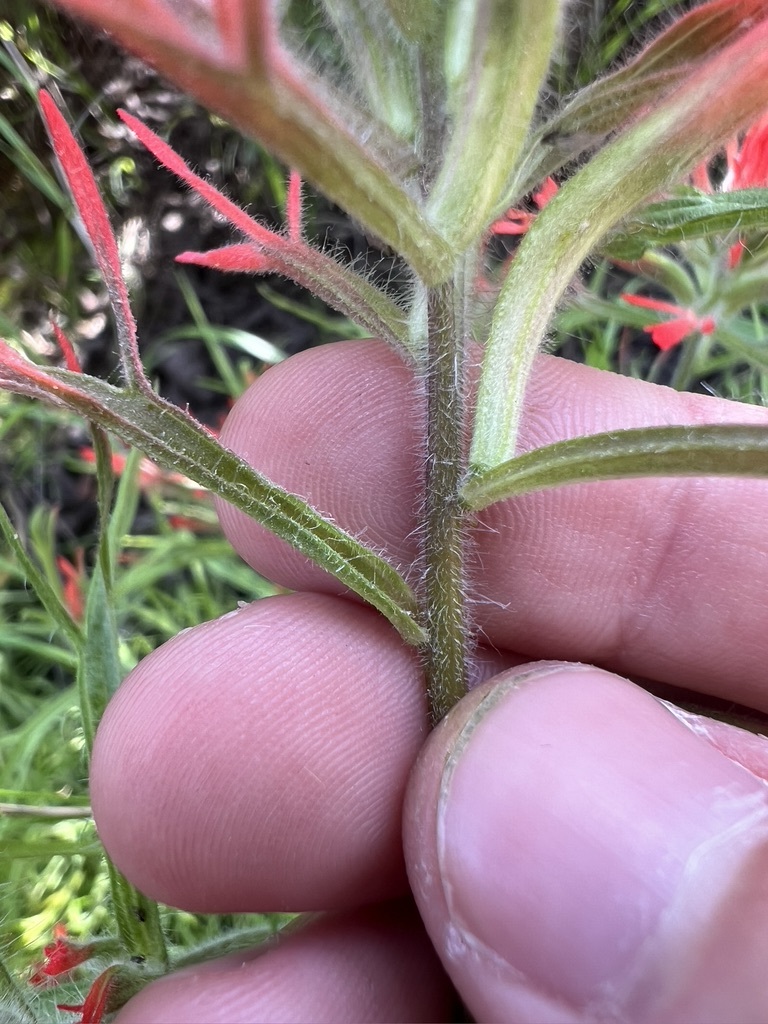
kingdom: Plantae
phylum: Tracheophyta
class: Magnoliopsida
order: Lamiales
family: Orobanchaceae
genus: Castilleja
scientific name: Castilleja affinis
